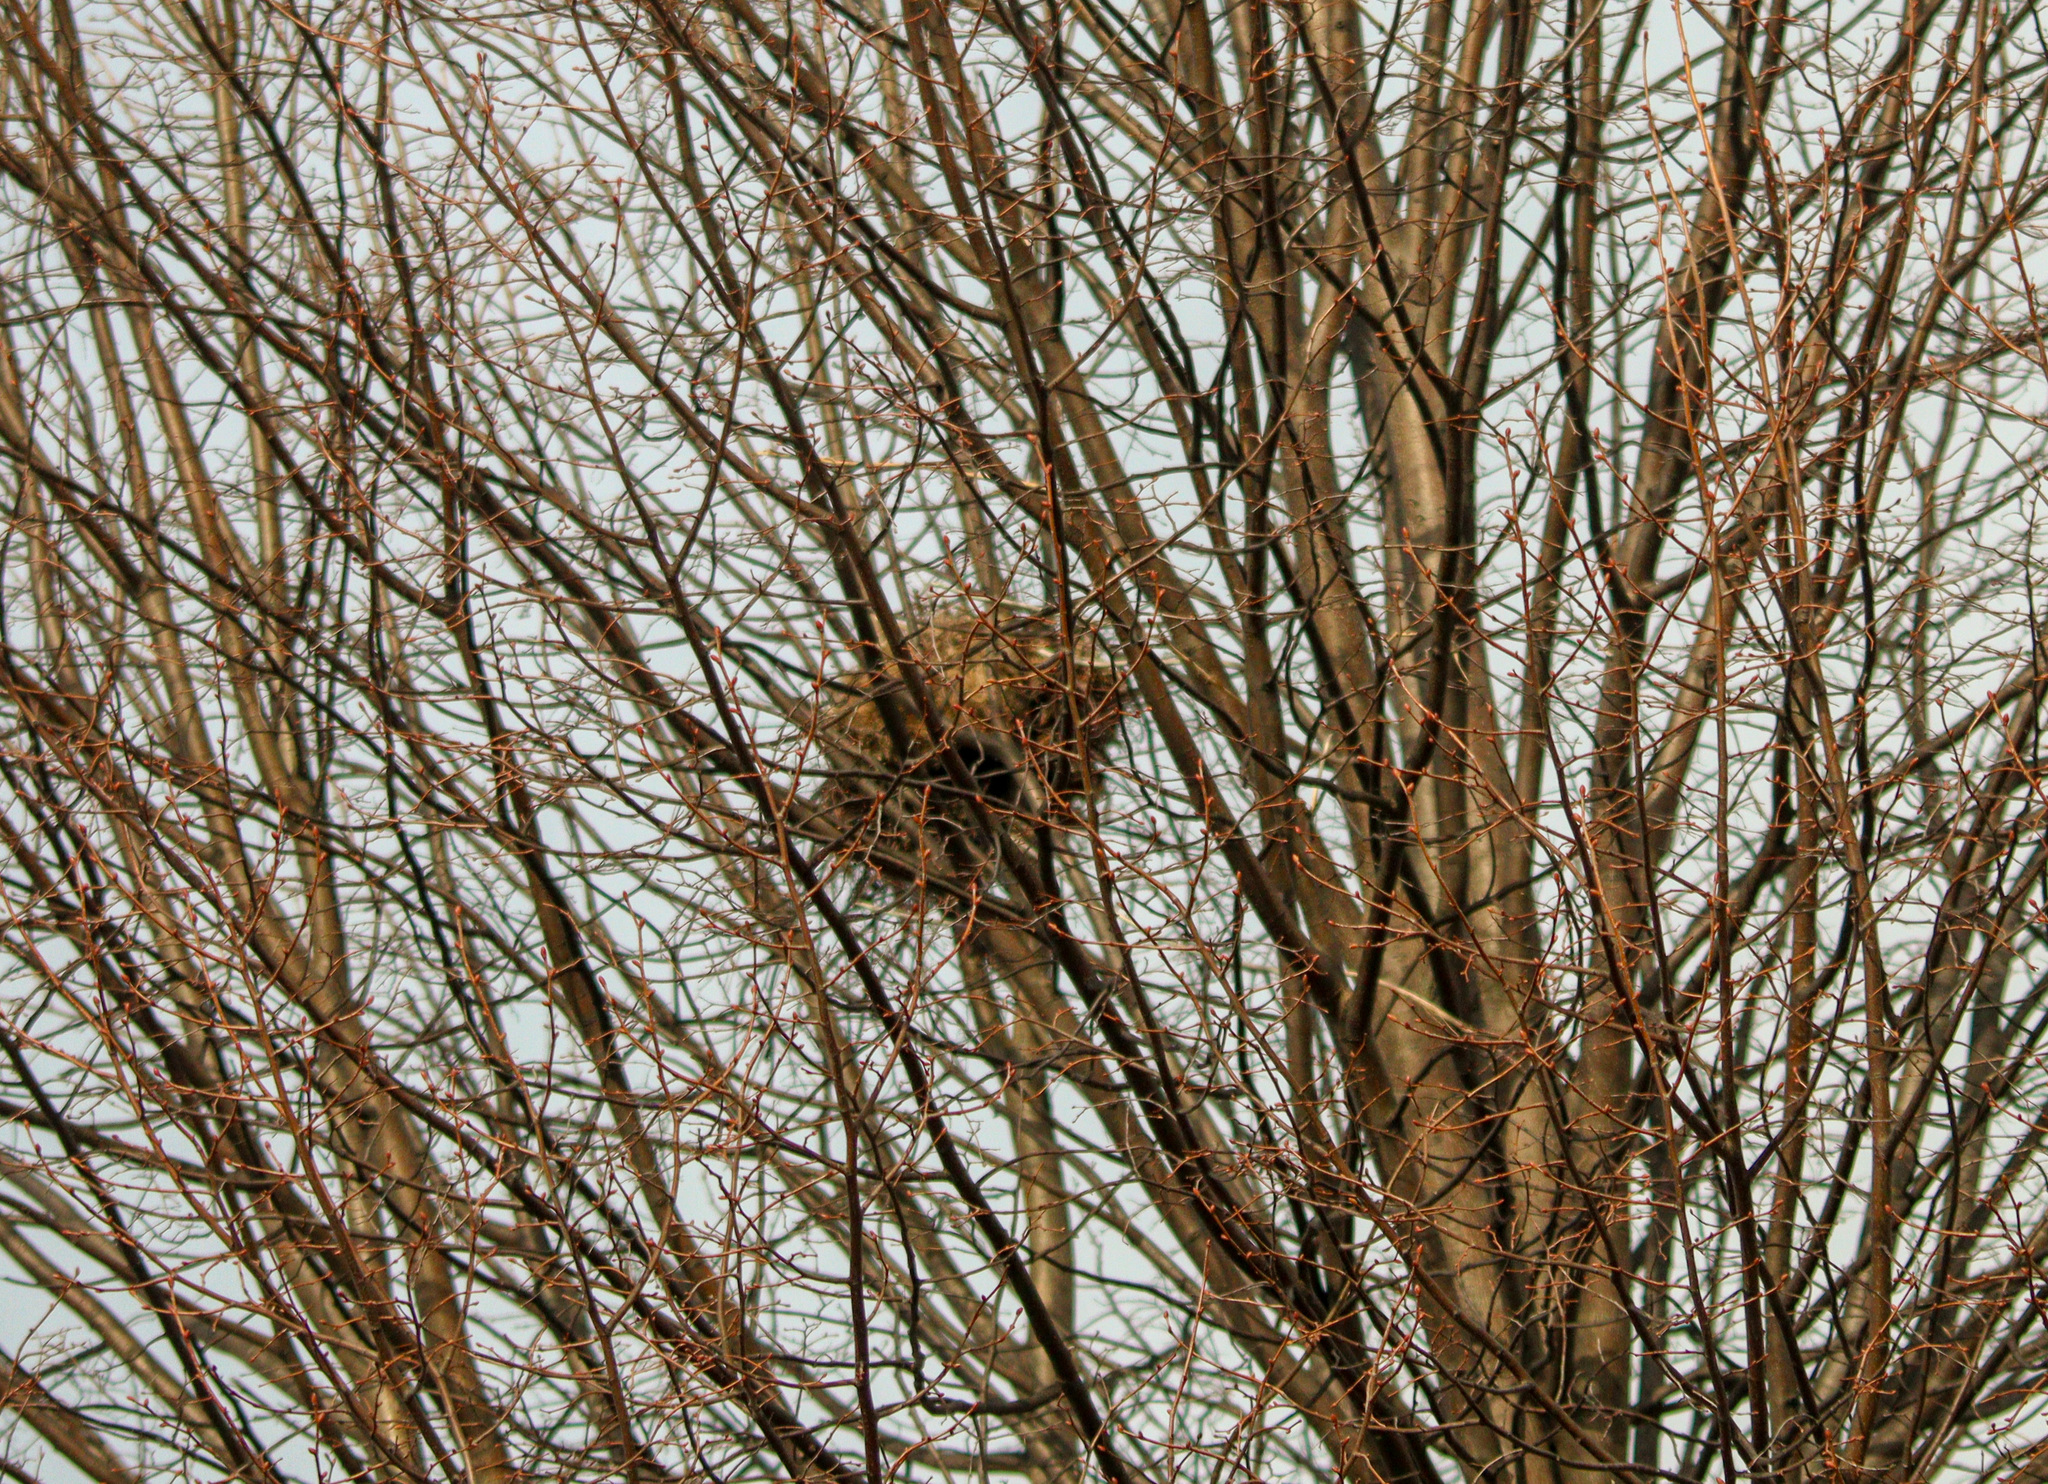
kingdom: Animalia
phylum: Chordata
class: Mammalia
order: Rodentia
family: Sciuridae
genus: Sciurus
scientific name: Sciurus carolinensis
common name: Eastern gray squirrel
